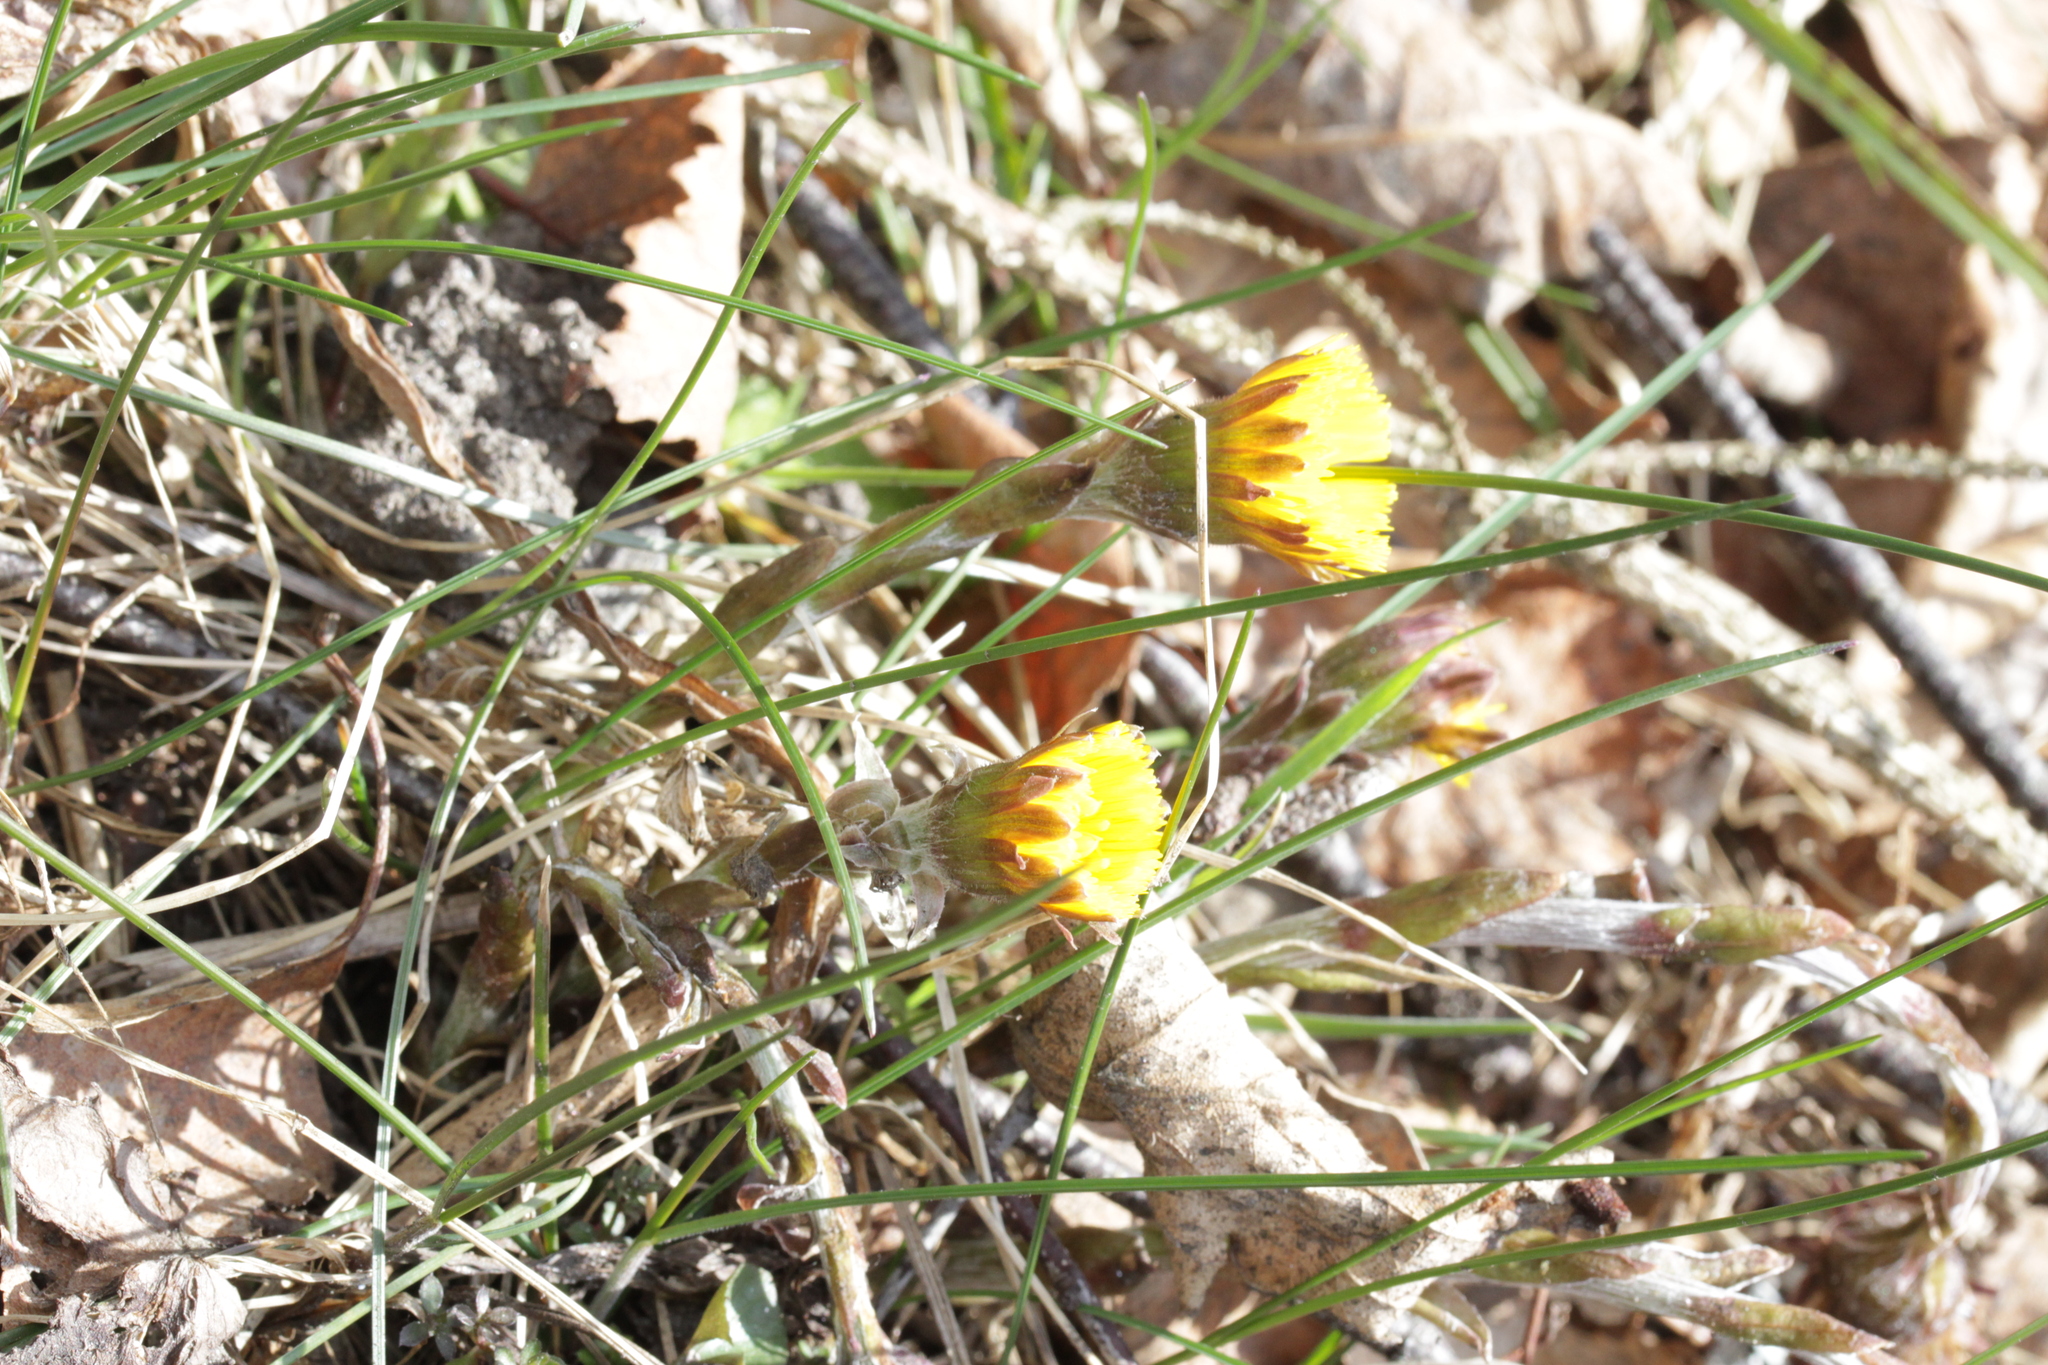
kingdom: Plantae
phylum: Tracheophyta
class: Magnoliopsida
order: Asterales
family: Asteraceae
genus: Tussilago
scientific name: Tussilago farfara
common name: Coltsfoot
